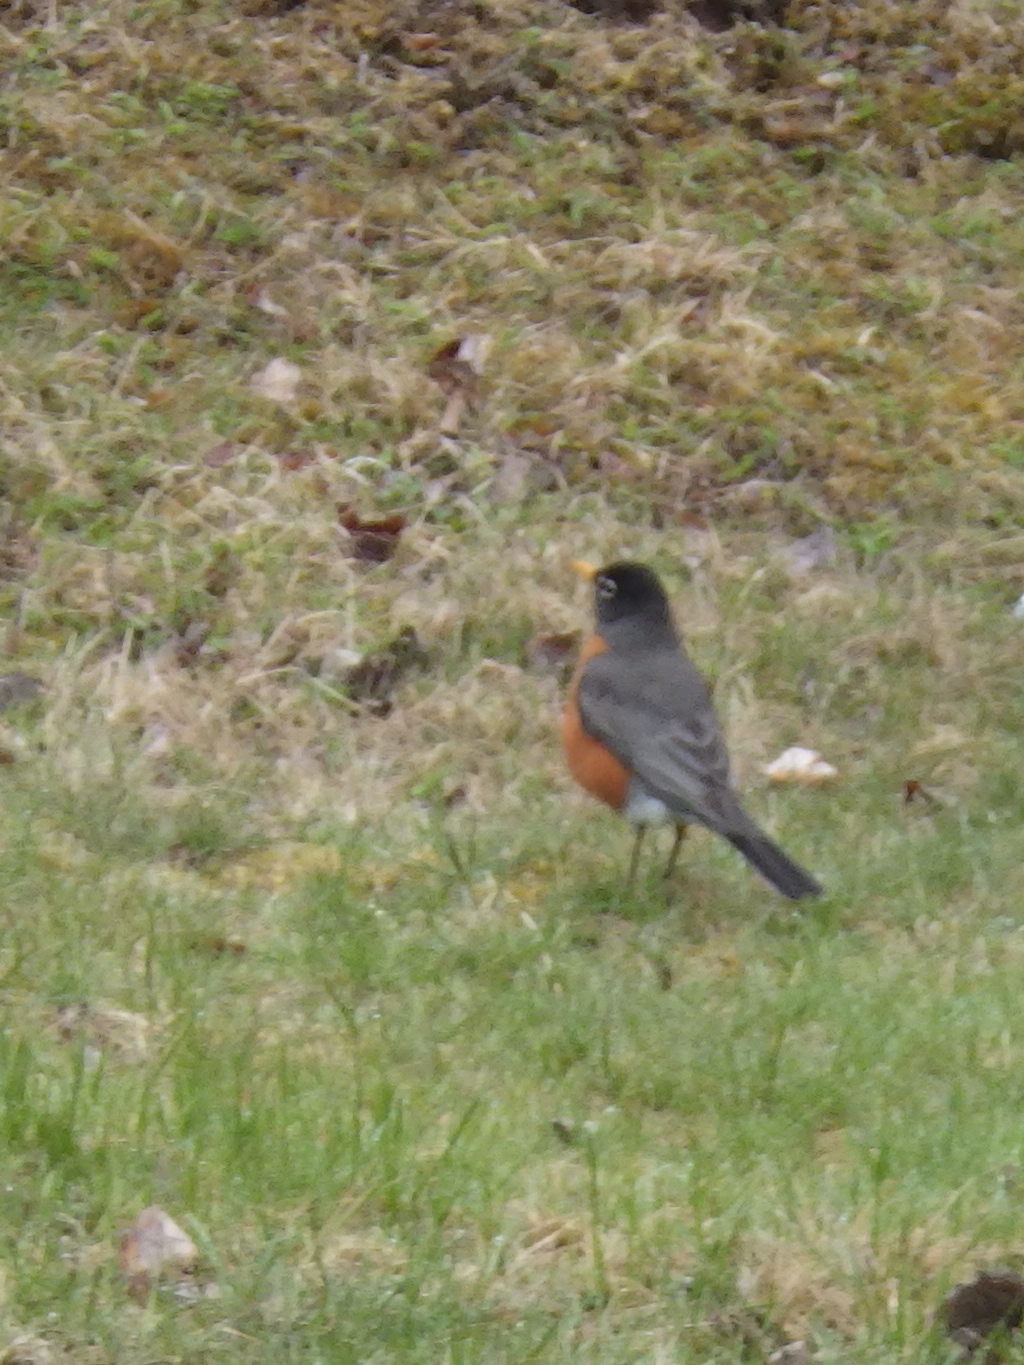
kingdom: Animalia
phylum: Chordata
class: Aves
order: Passeriformes
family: Turdidae
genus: Turdus
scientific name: Turdus migratorius
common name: American robin
